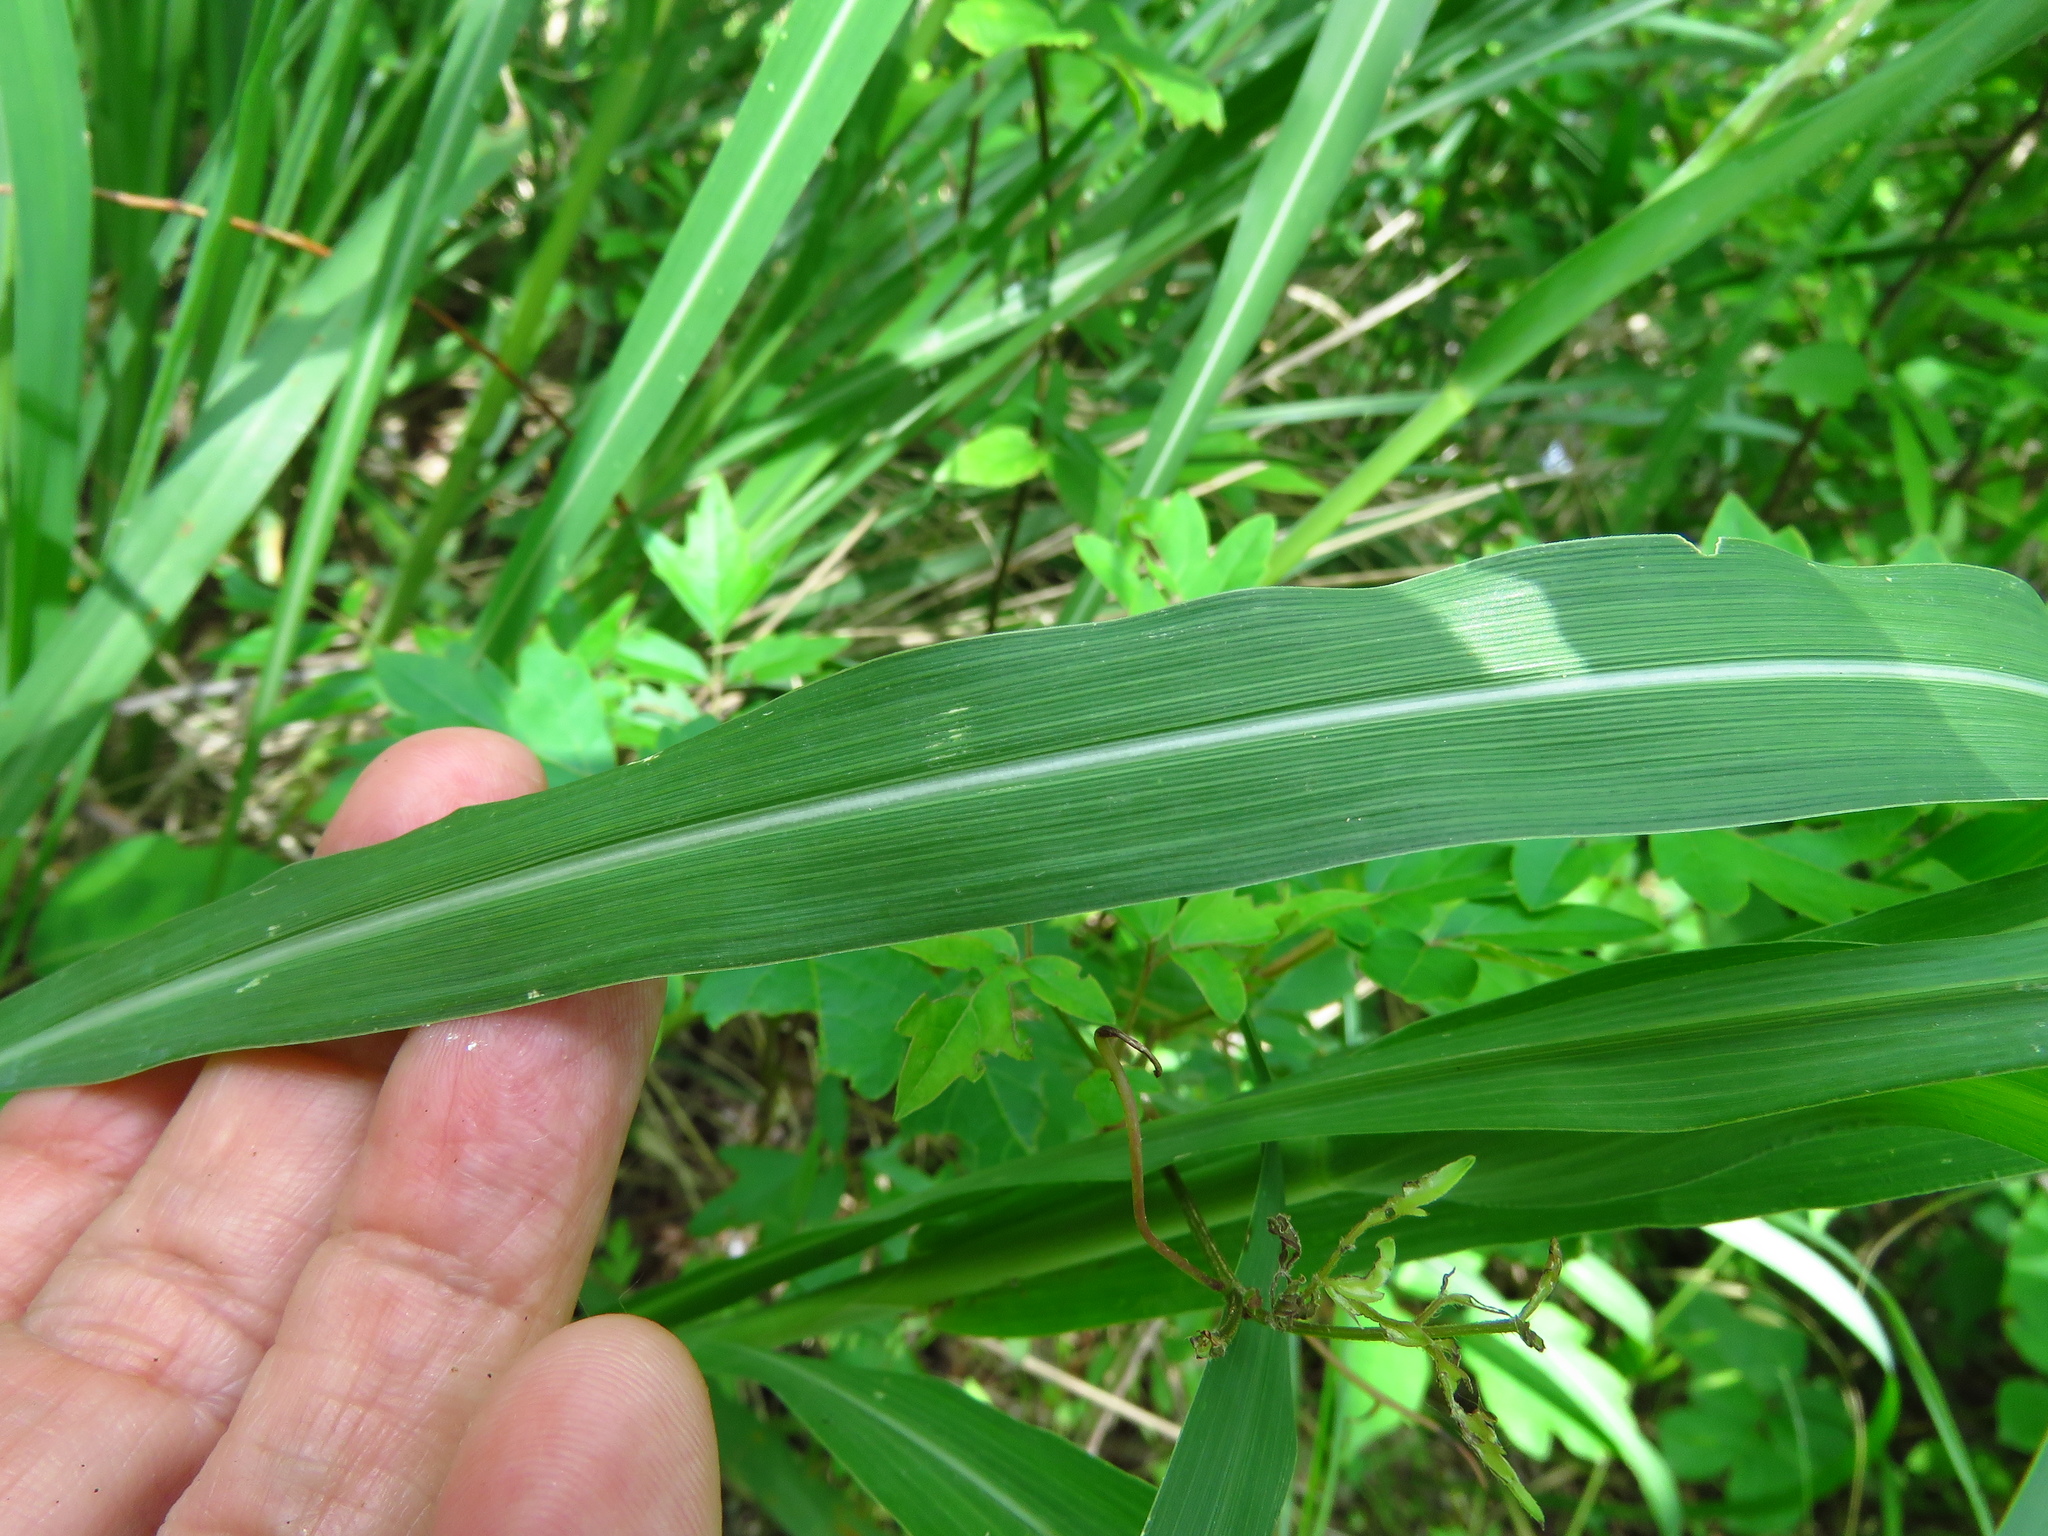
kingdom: Plantae
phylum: Tracheophyta
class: Liliopsida
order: Poales
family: Poaceae
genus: Sorghum
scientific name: Sorghum halepense
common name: Johnson-grass
